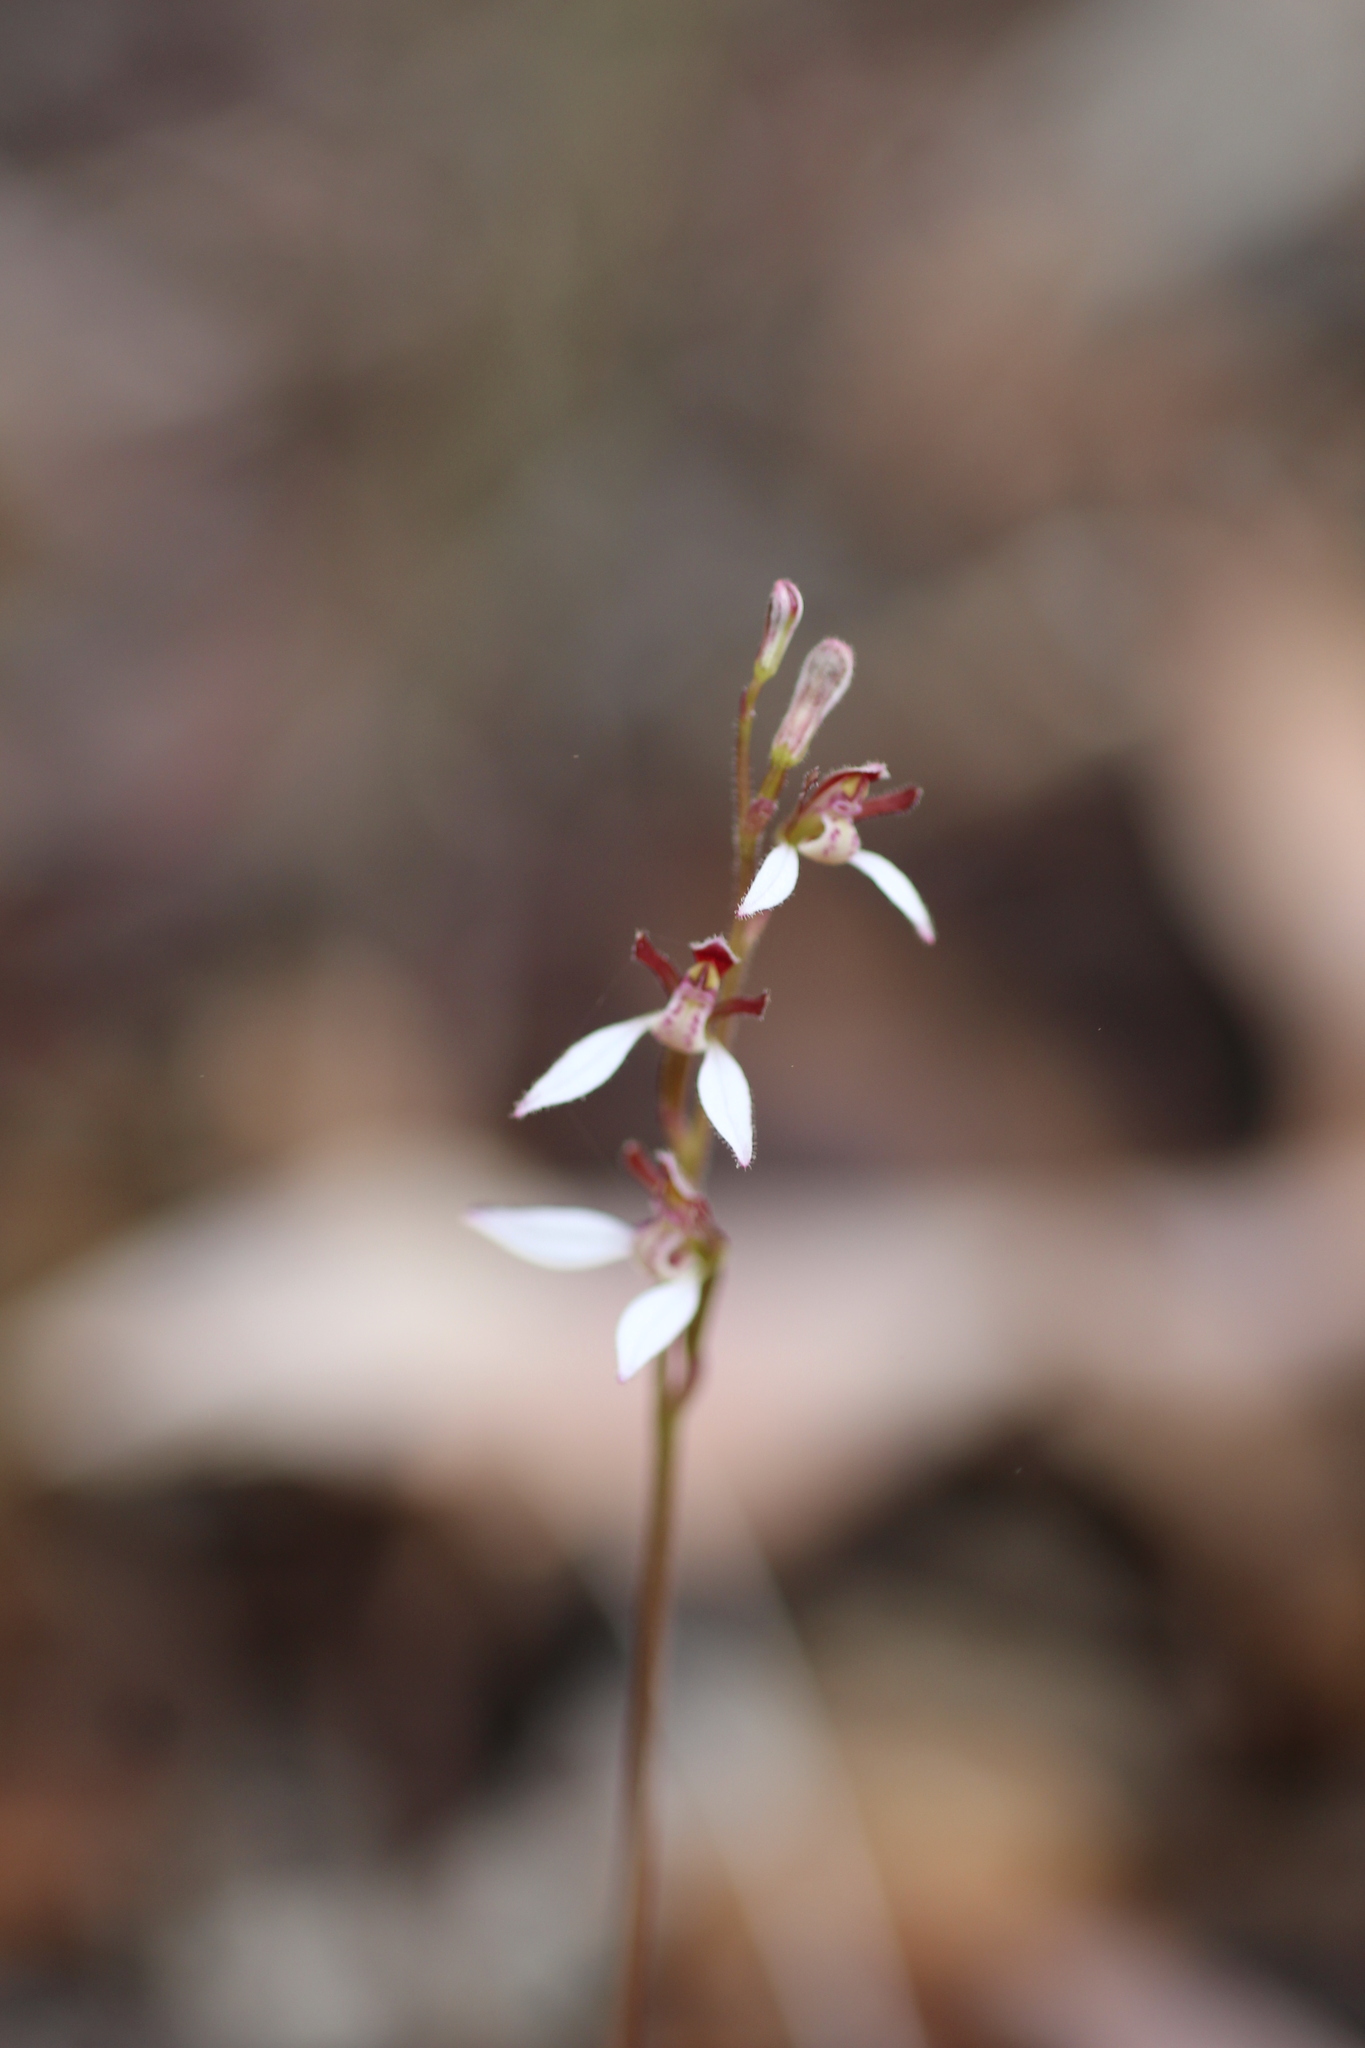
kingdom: Plantae
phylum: Tracheophyta
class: Liliopsida
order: Asparagales
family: Orchidaceae
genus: Eriochilus
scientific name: Eriochilus dilatatus
